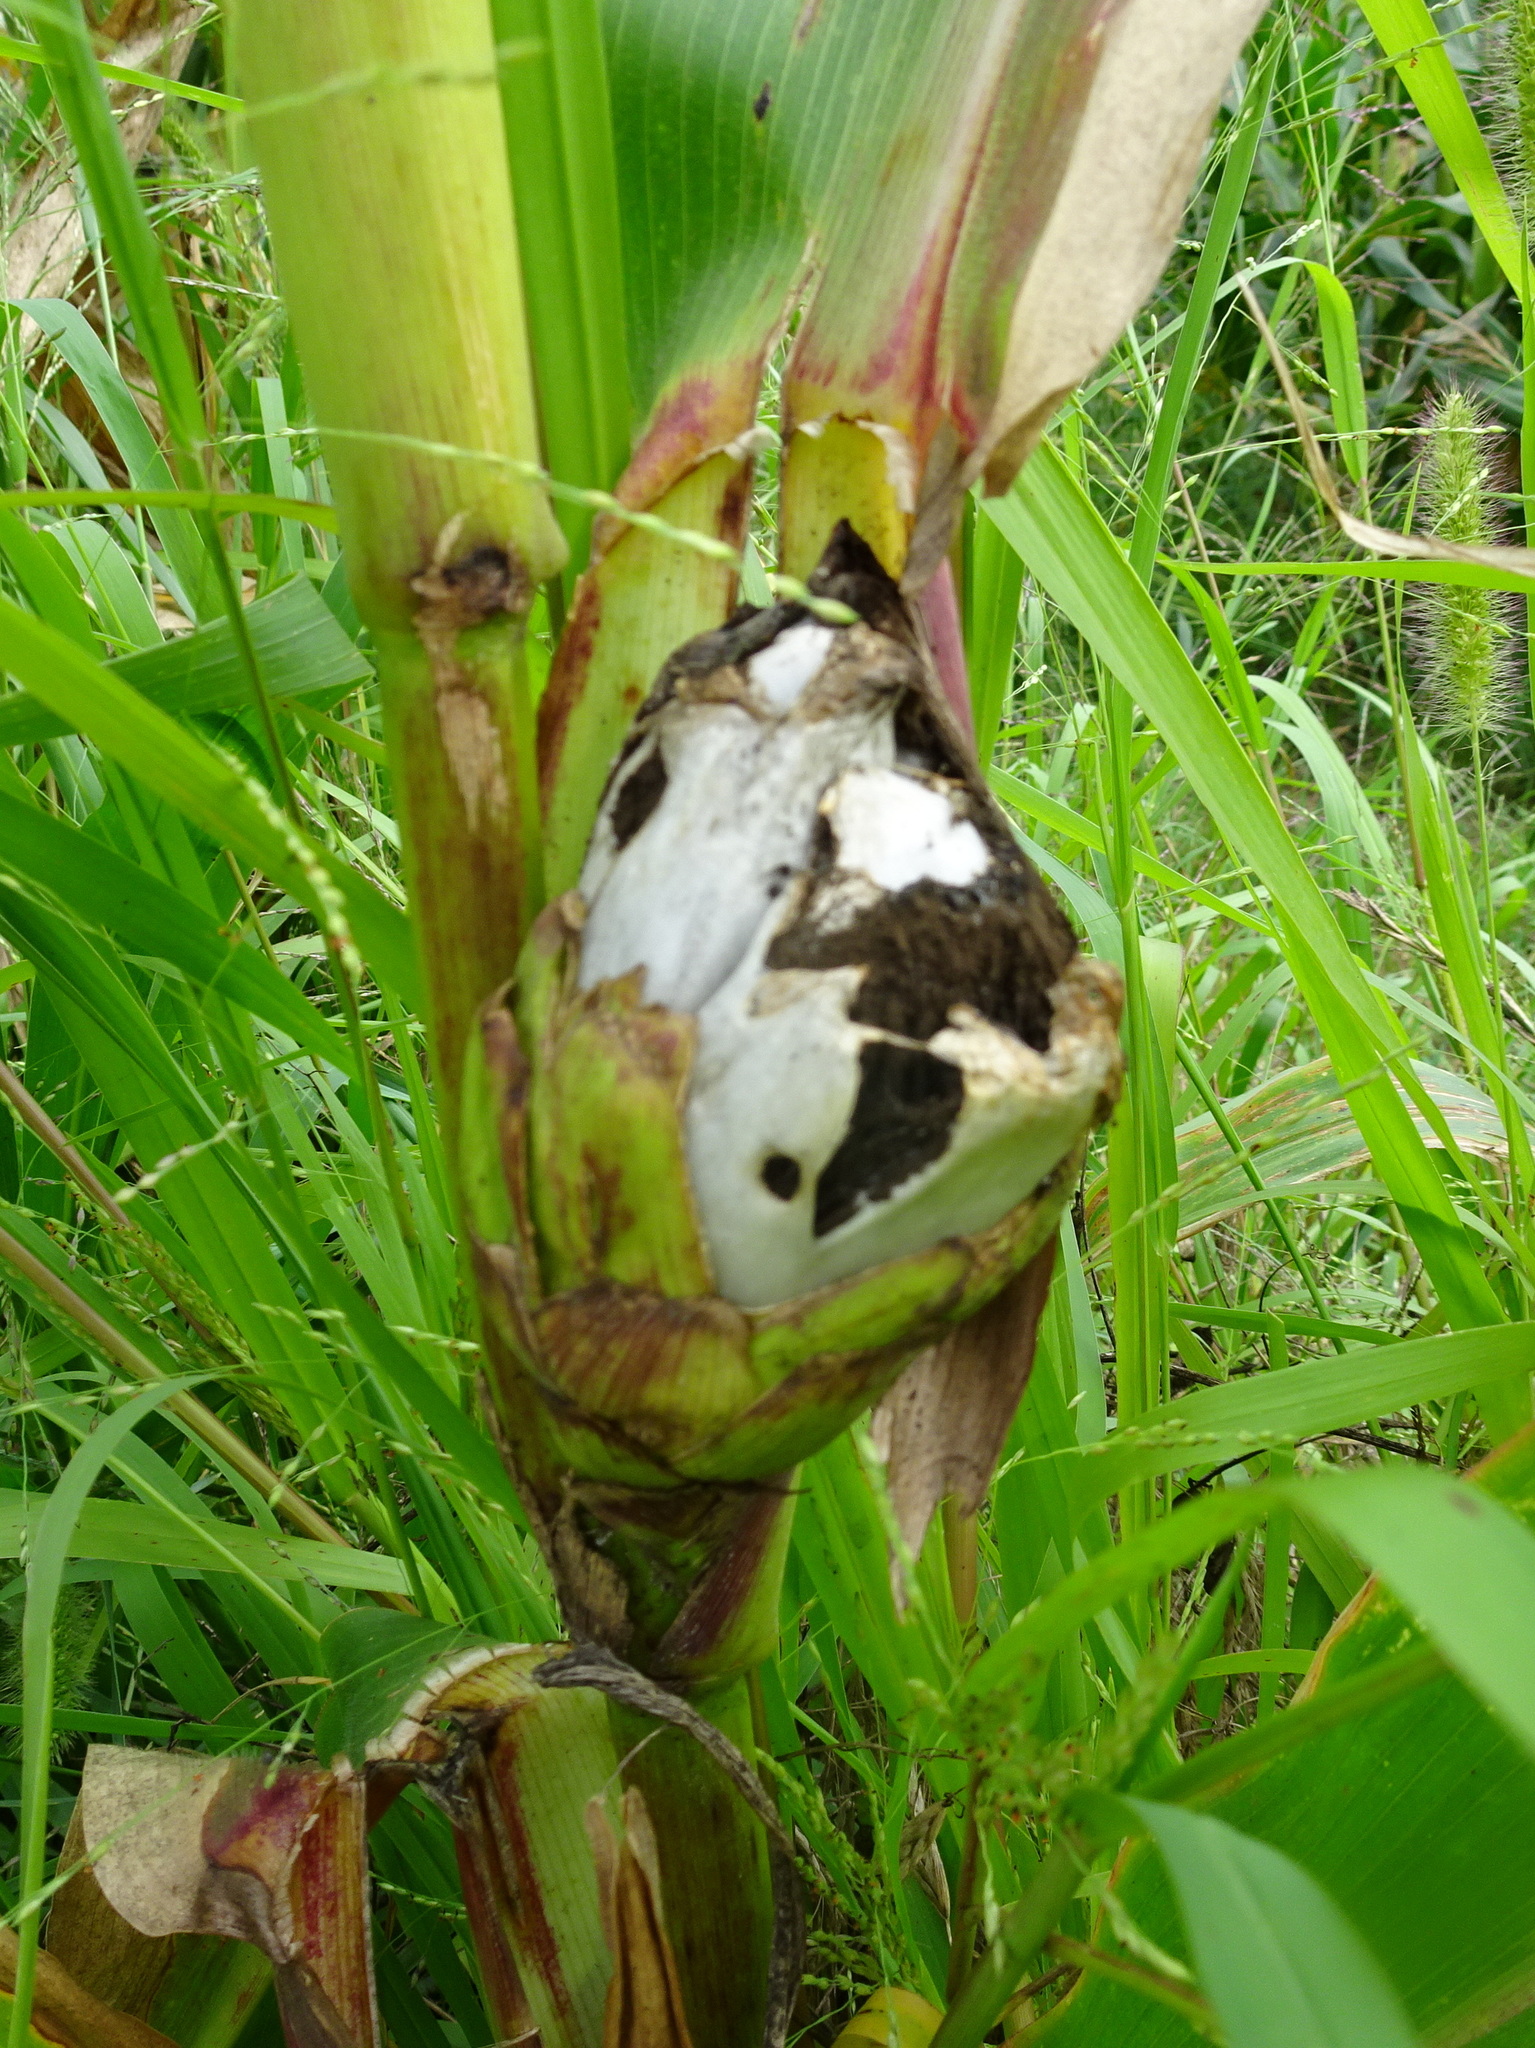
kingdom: Fungi
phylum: Basidiomycota
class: Ustilaginomycetes
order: Ustilaginales
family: Ustilaginaceae
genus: Mycosarcoma
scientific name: Mycosarcoma maydis
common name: Corn smut
